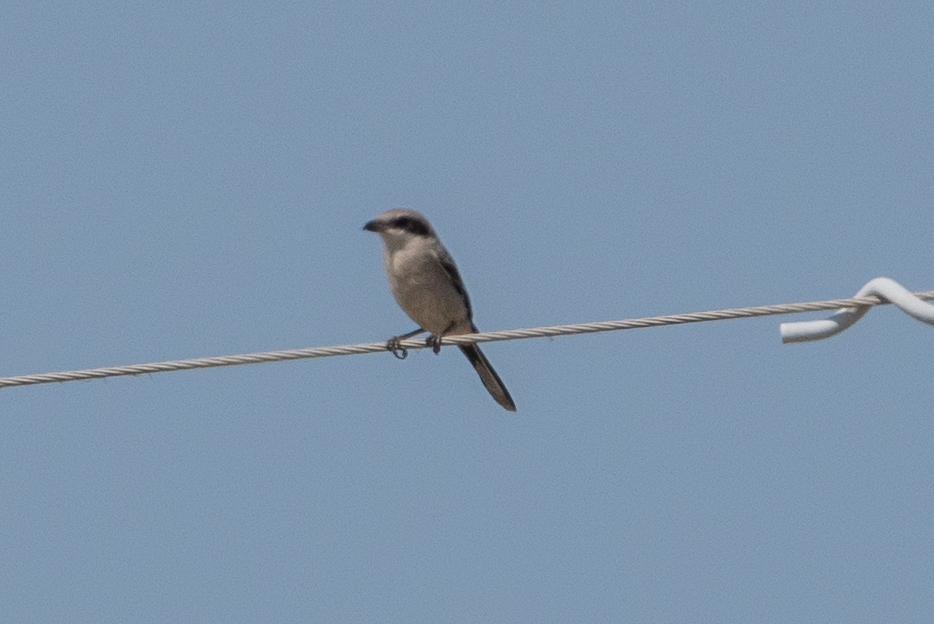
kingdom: Animalia
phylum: Chordata
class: Aves
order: Passeriformes
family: Laniidae
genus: Lanius
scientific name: Lanius ludovicianus
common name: Loggerhead shrike
